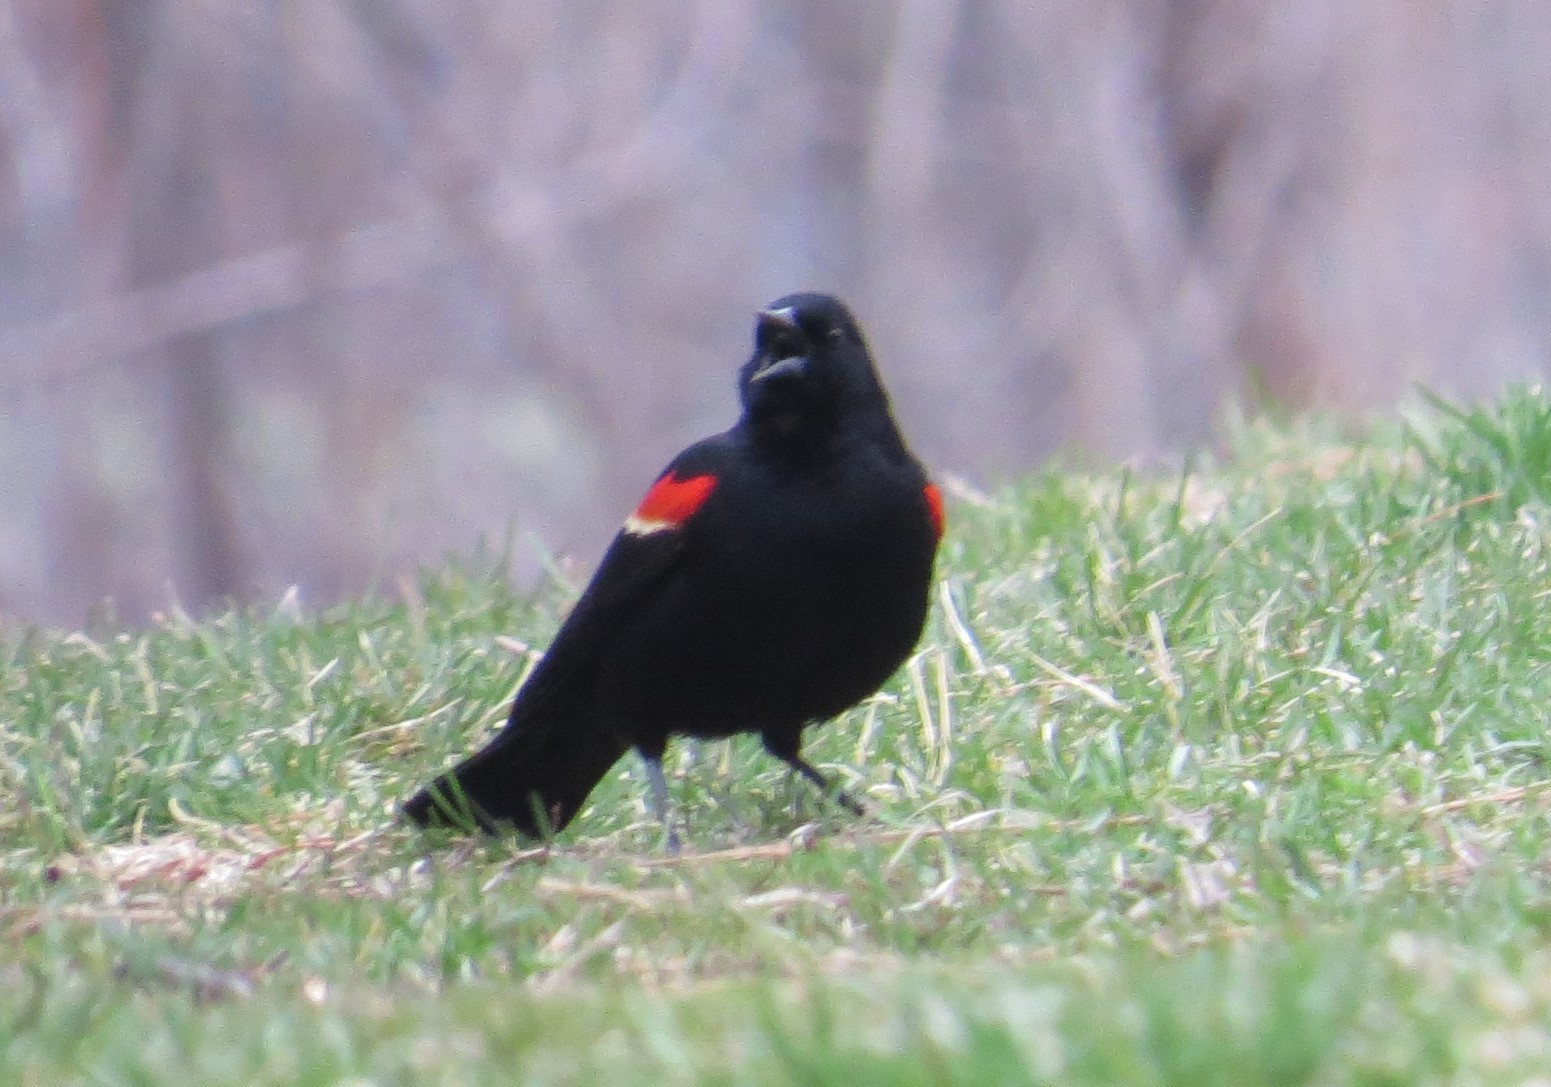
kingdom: Animalia
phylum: Chordata
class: Aves
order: Passeriformes
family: Icteridae
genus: Agelaius
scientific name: Agelaius phoeniceus
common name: Red-winged blackbird
